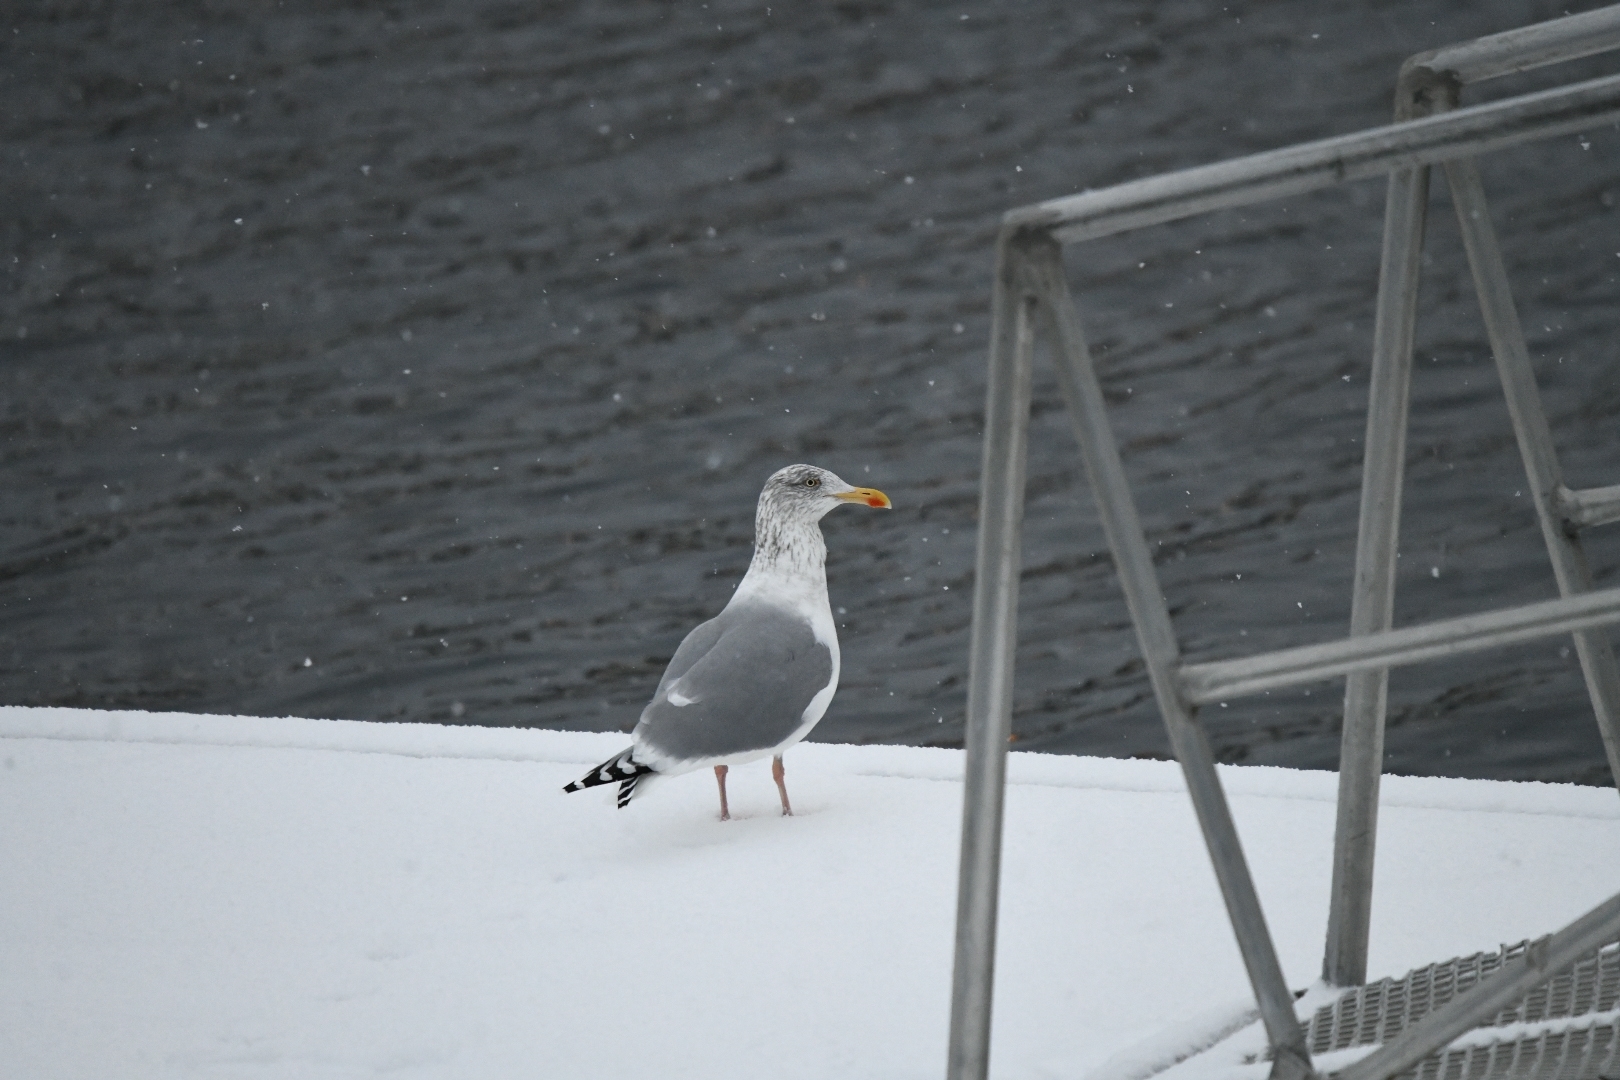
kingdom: Animalia
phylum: Chordata
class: Aves
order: Charadriiformes
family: Laridae
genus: Larus
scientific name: Larus argentatus
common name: Herring gull
